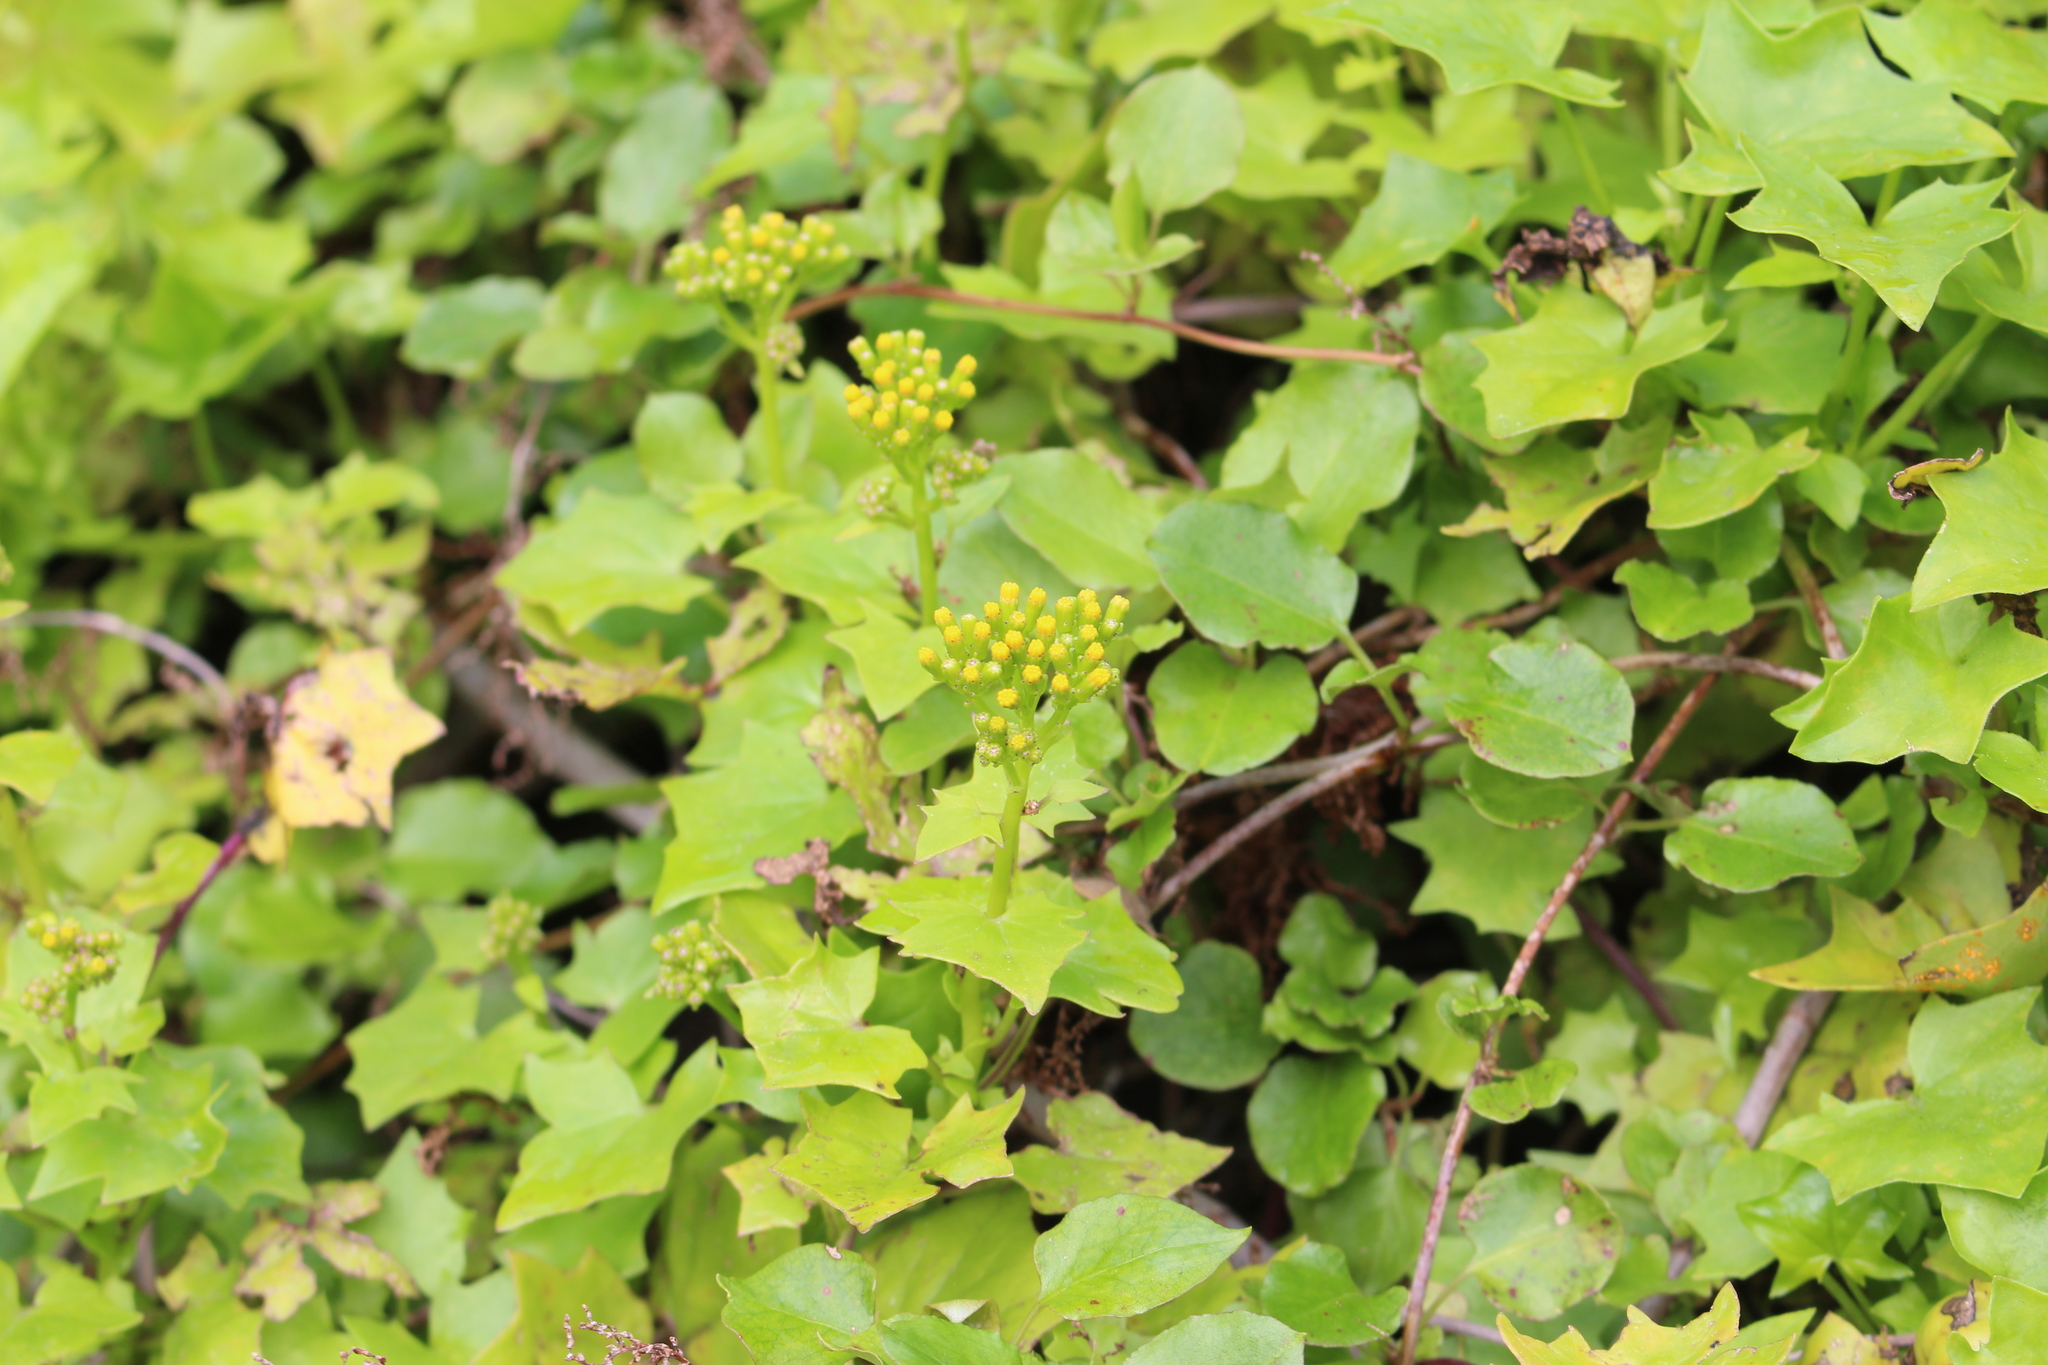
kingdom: Plantae
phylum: Tracheophyta
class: Magnoliopsida
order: Caryophyllales
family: Polygonaceae
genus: Muehlenbeckia
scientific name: Muehlenbeckia australis
